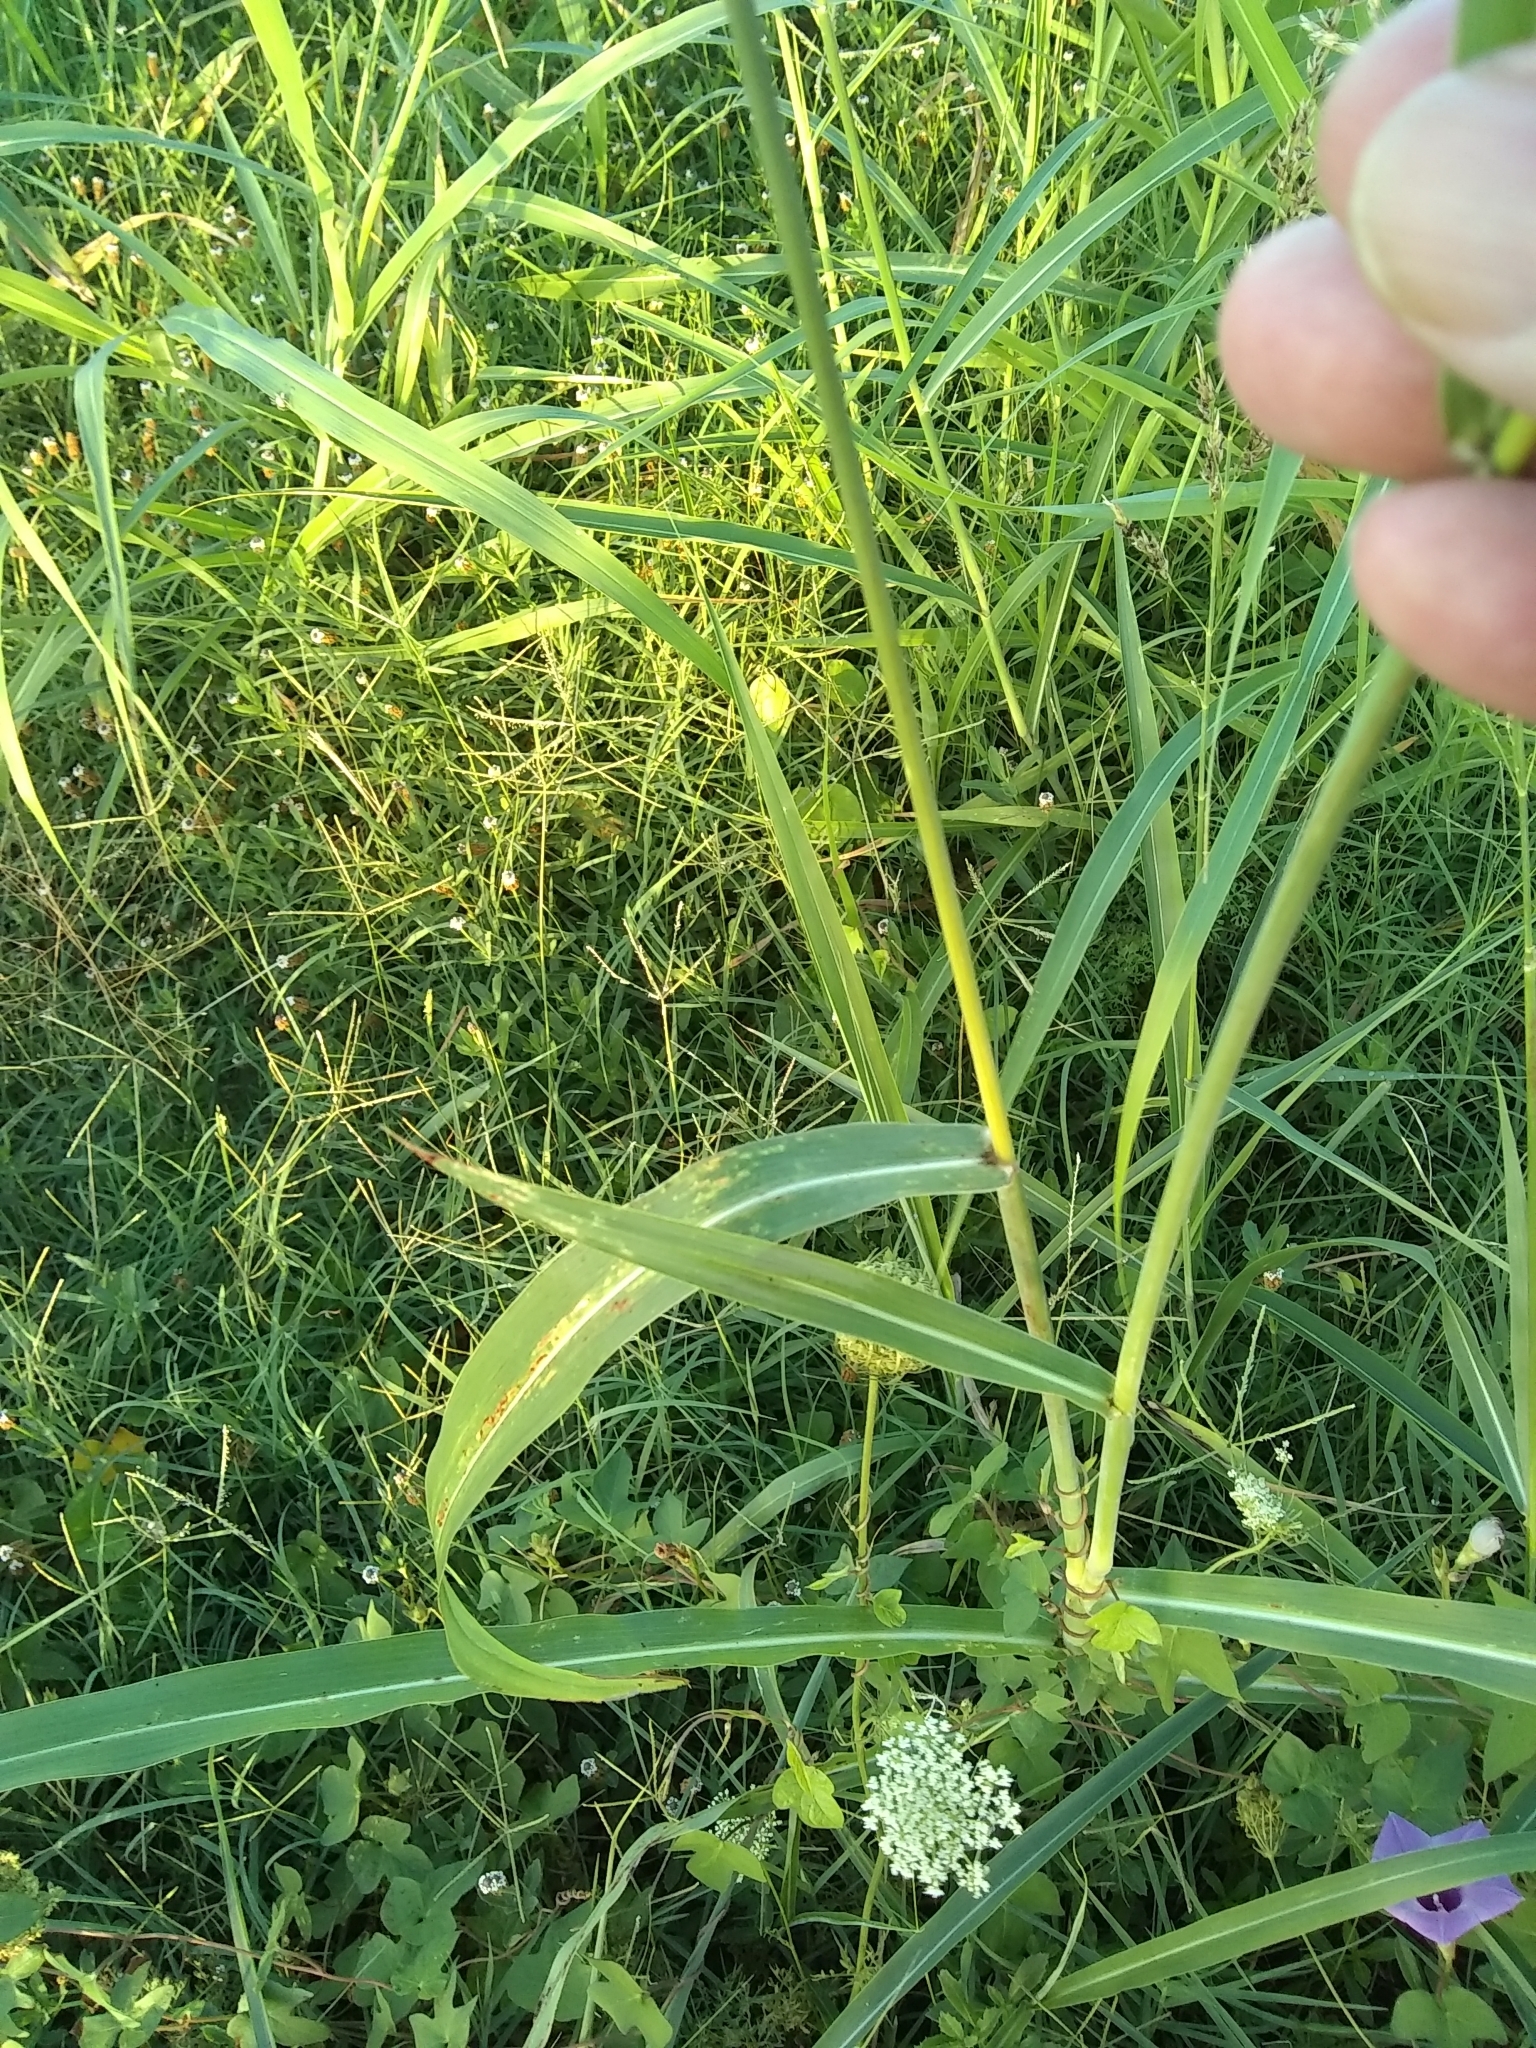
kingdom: Plantae
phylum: Tracheophyta
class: Liliopsida
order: Poales
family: Poaceae
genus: Sorghum
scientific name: Sorghum halepense
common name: Johnson-grass
